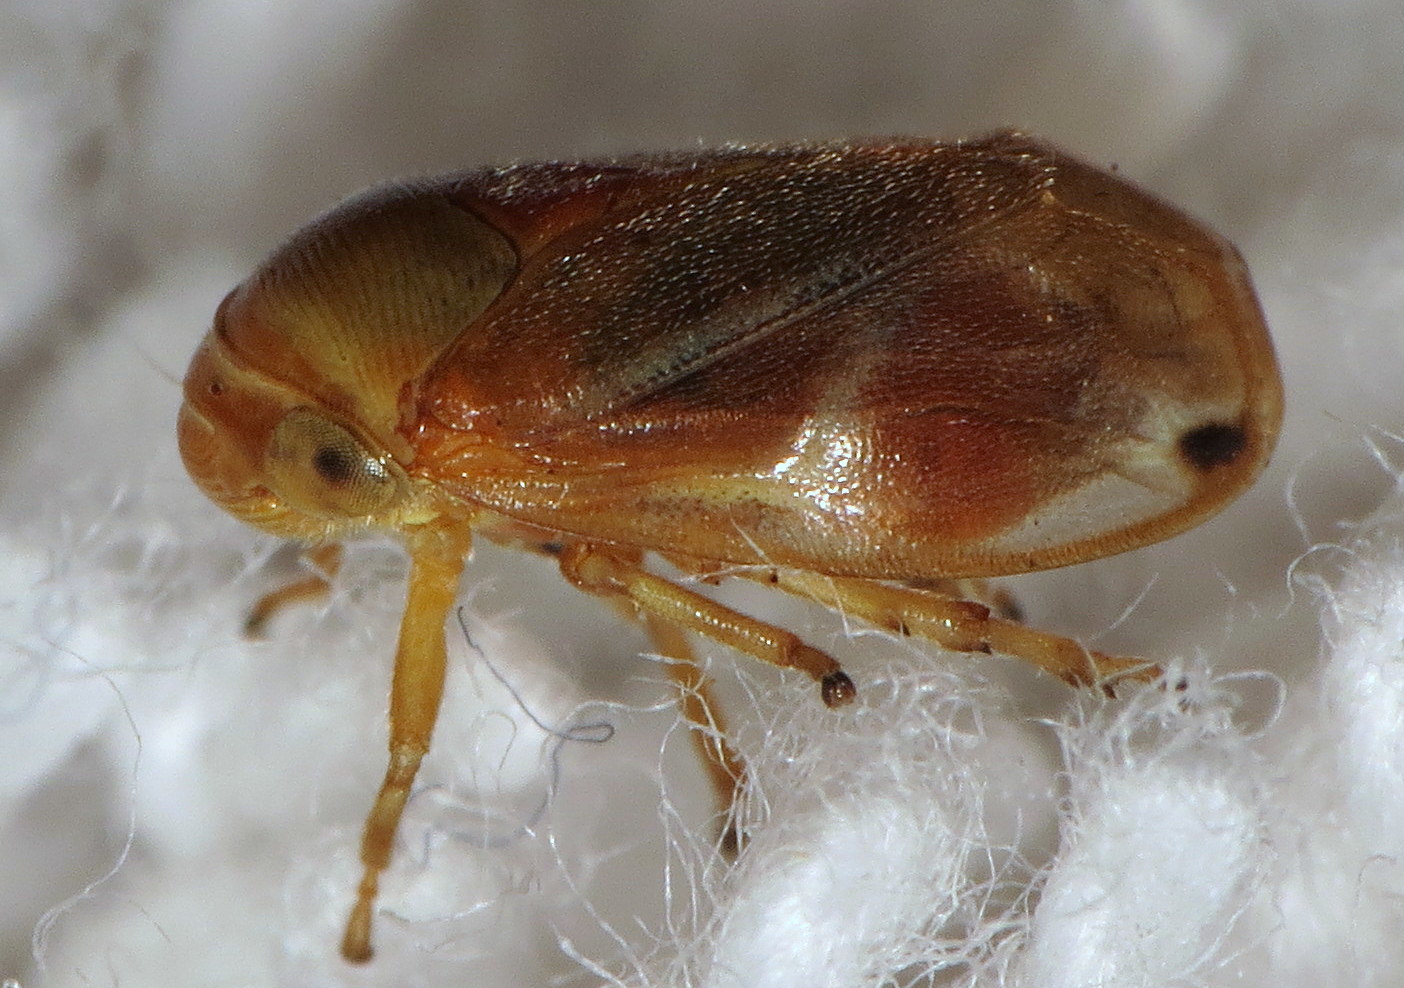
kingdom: Animalia
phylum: Arthropoda
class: Insecta
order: Hemiptera
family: Clastopteridae
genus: Clastoptera
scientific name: Clastoptera testacea
